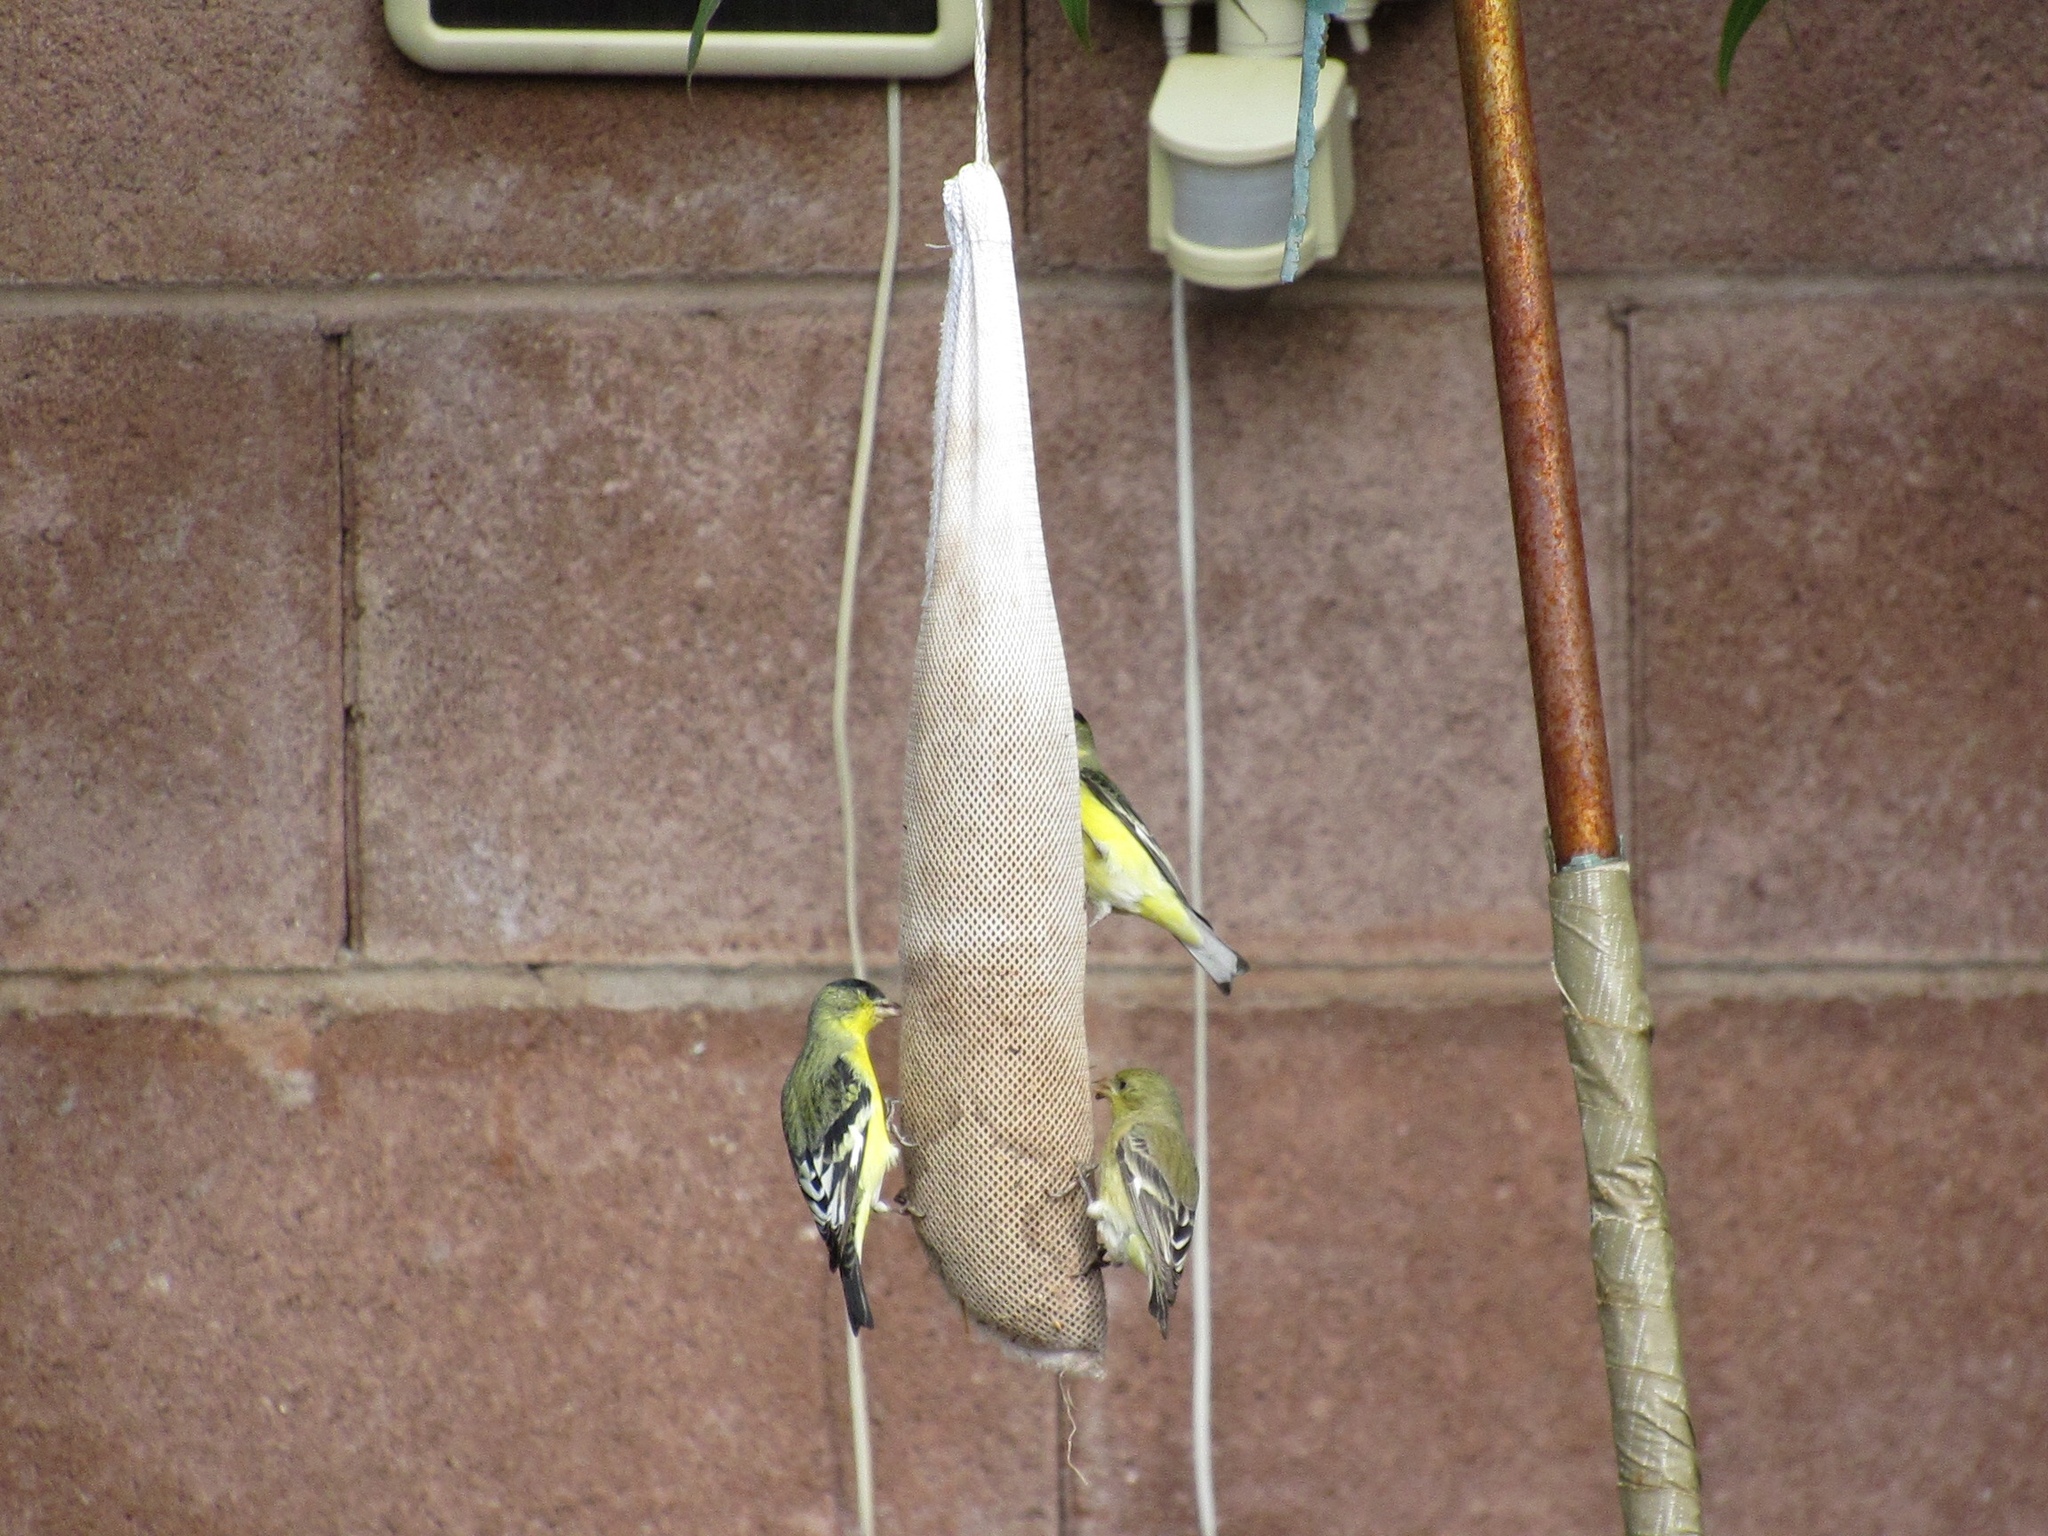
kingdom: Animalia
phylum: Chordata
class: Aves
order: Passeriformes
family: Fringillidae
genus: Spinus
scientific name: Spinus psaltria
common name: Lesser goldfinch
